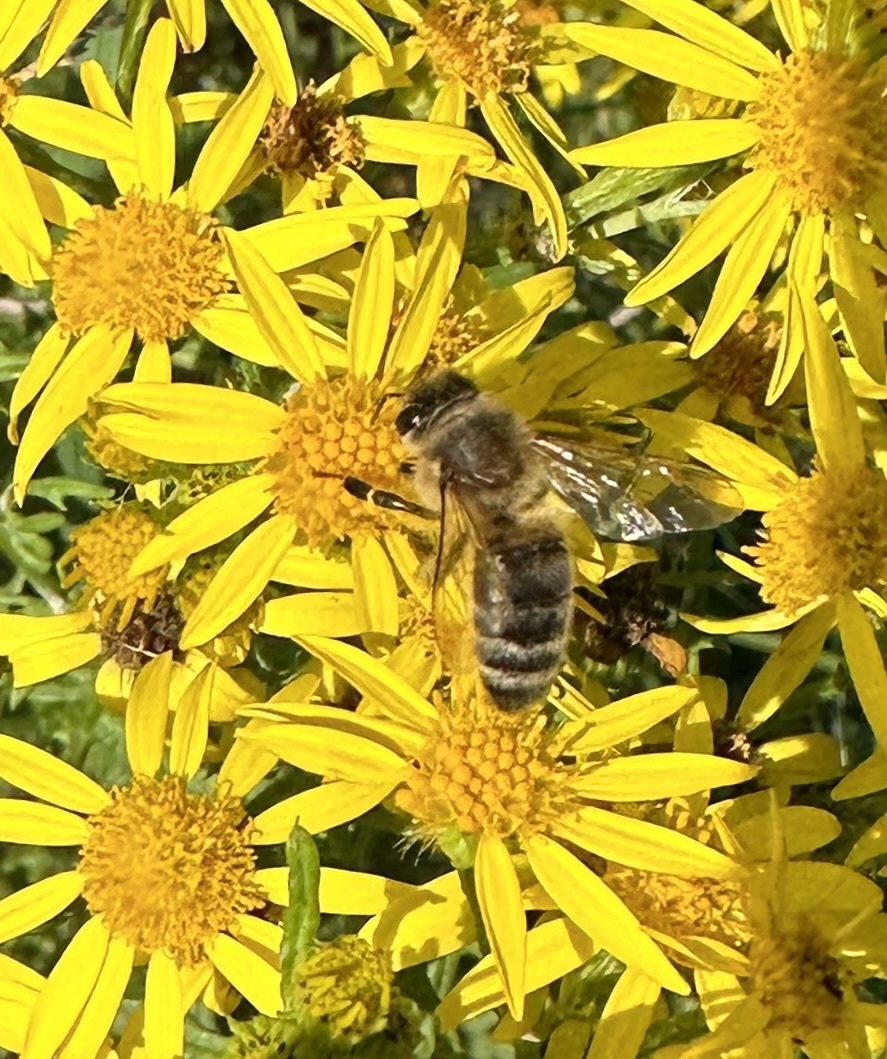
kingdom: Animalia
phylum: Arthropoda
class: Insecta
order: Hymenoptera
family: Apidae
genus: Apis
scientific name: Apis mellifera
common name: Honey bee
